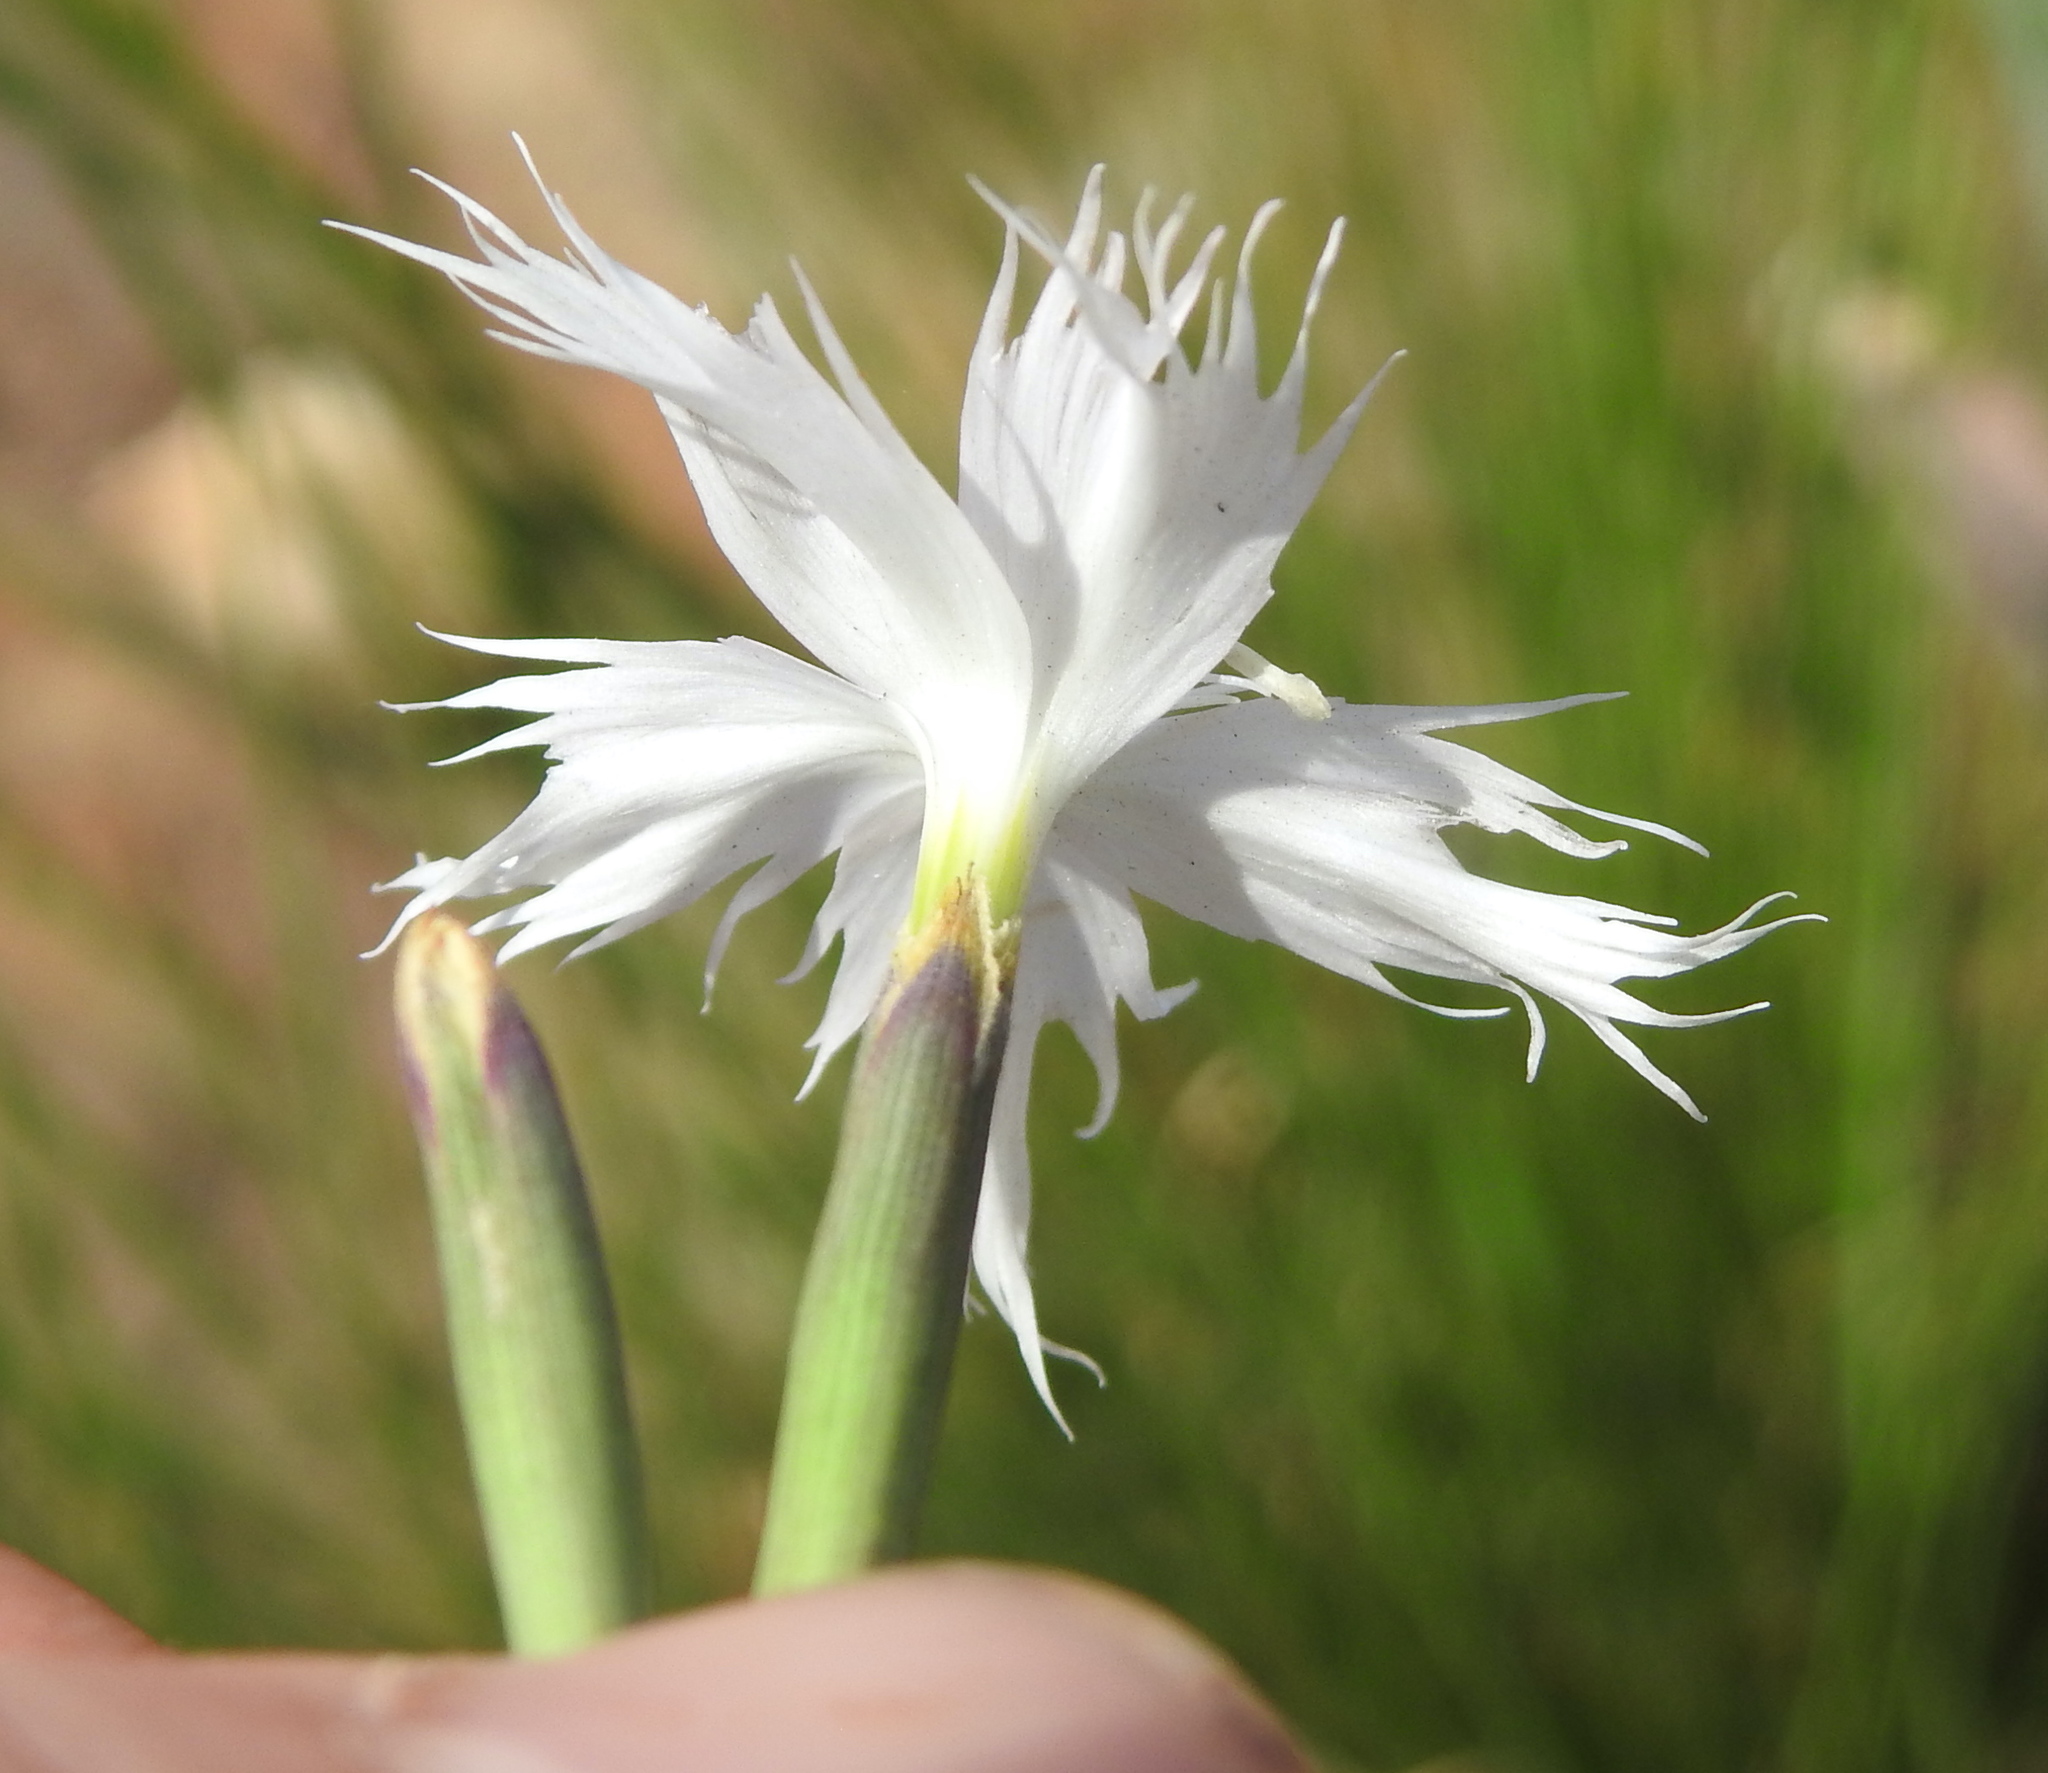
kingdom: Plantae
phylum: Tracheophyta
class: Magnoliopsida
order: Caryophyllales
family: Caryophyllaceae
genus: Dianthus
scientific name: Dianthus mooiensis
